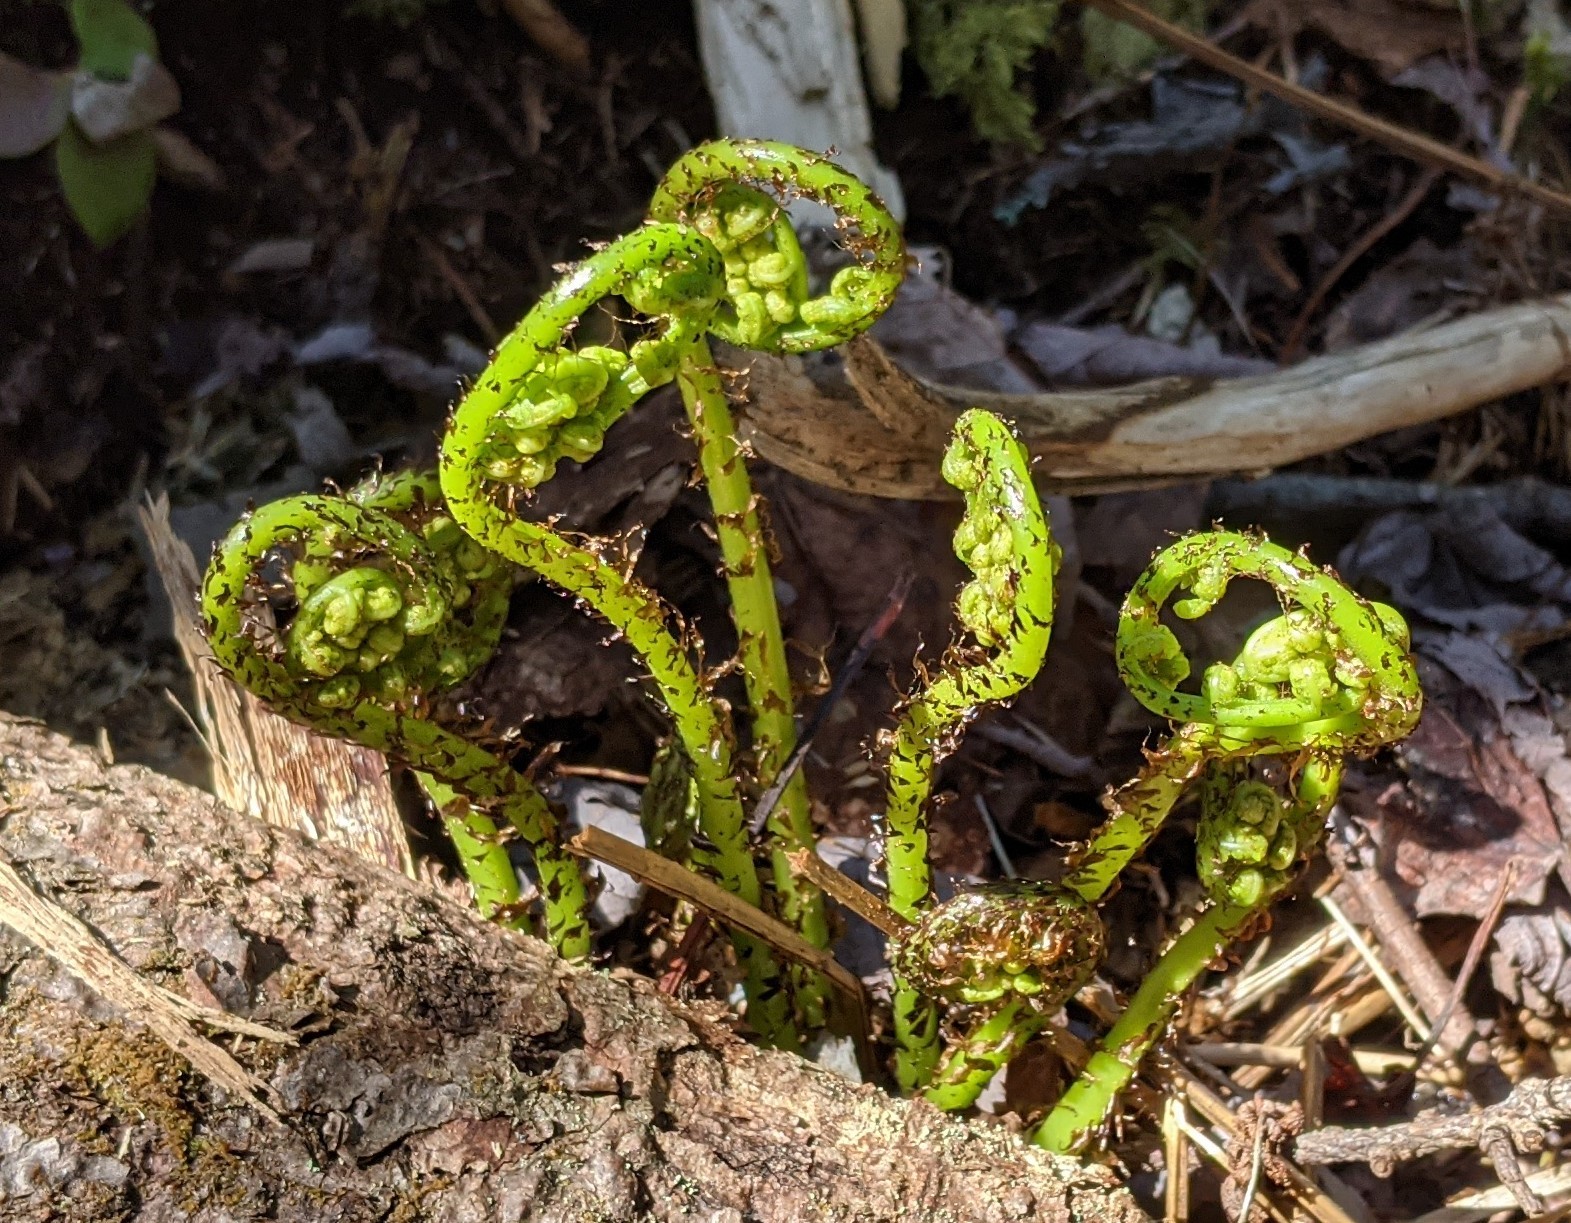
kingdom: Plantae
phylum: Tracheophyta
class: Polypodiopsida
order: Polypodiales
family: Athyriaceae
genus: Athyrium
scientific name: Athyrium angustum
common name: Northern lady fern
